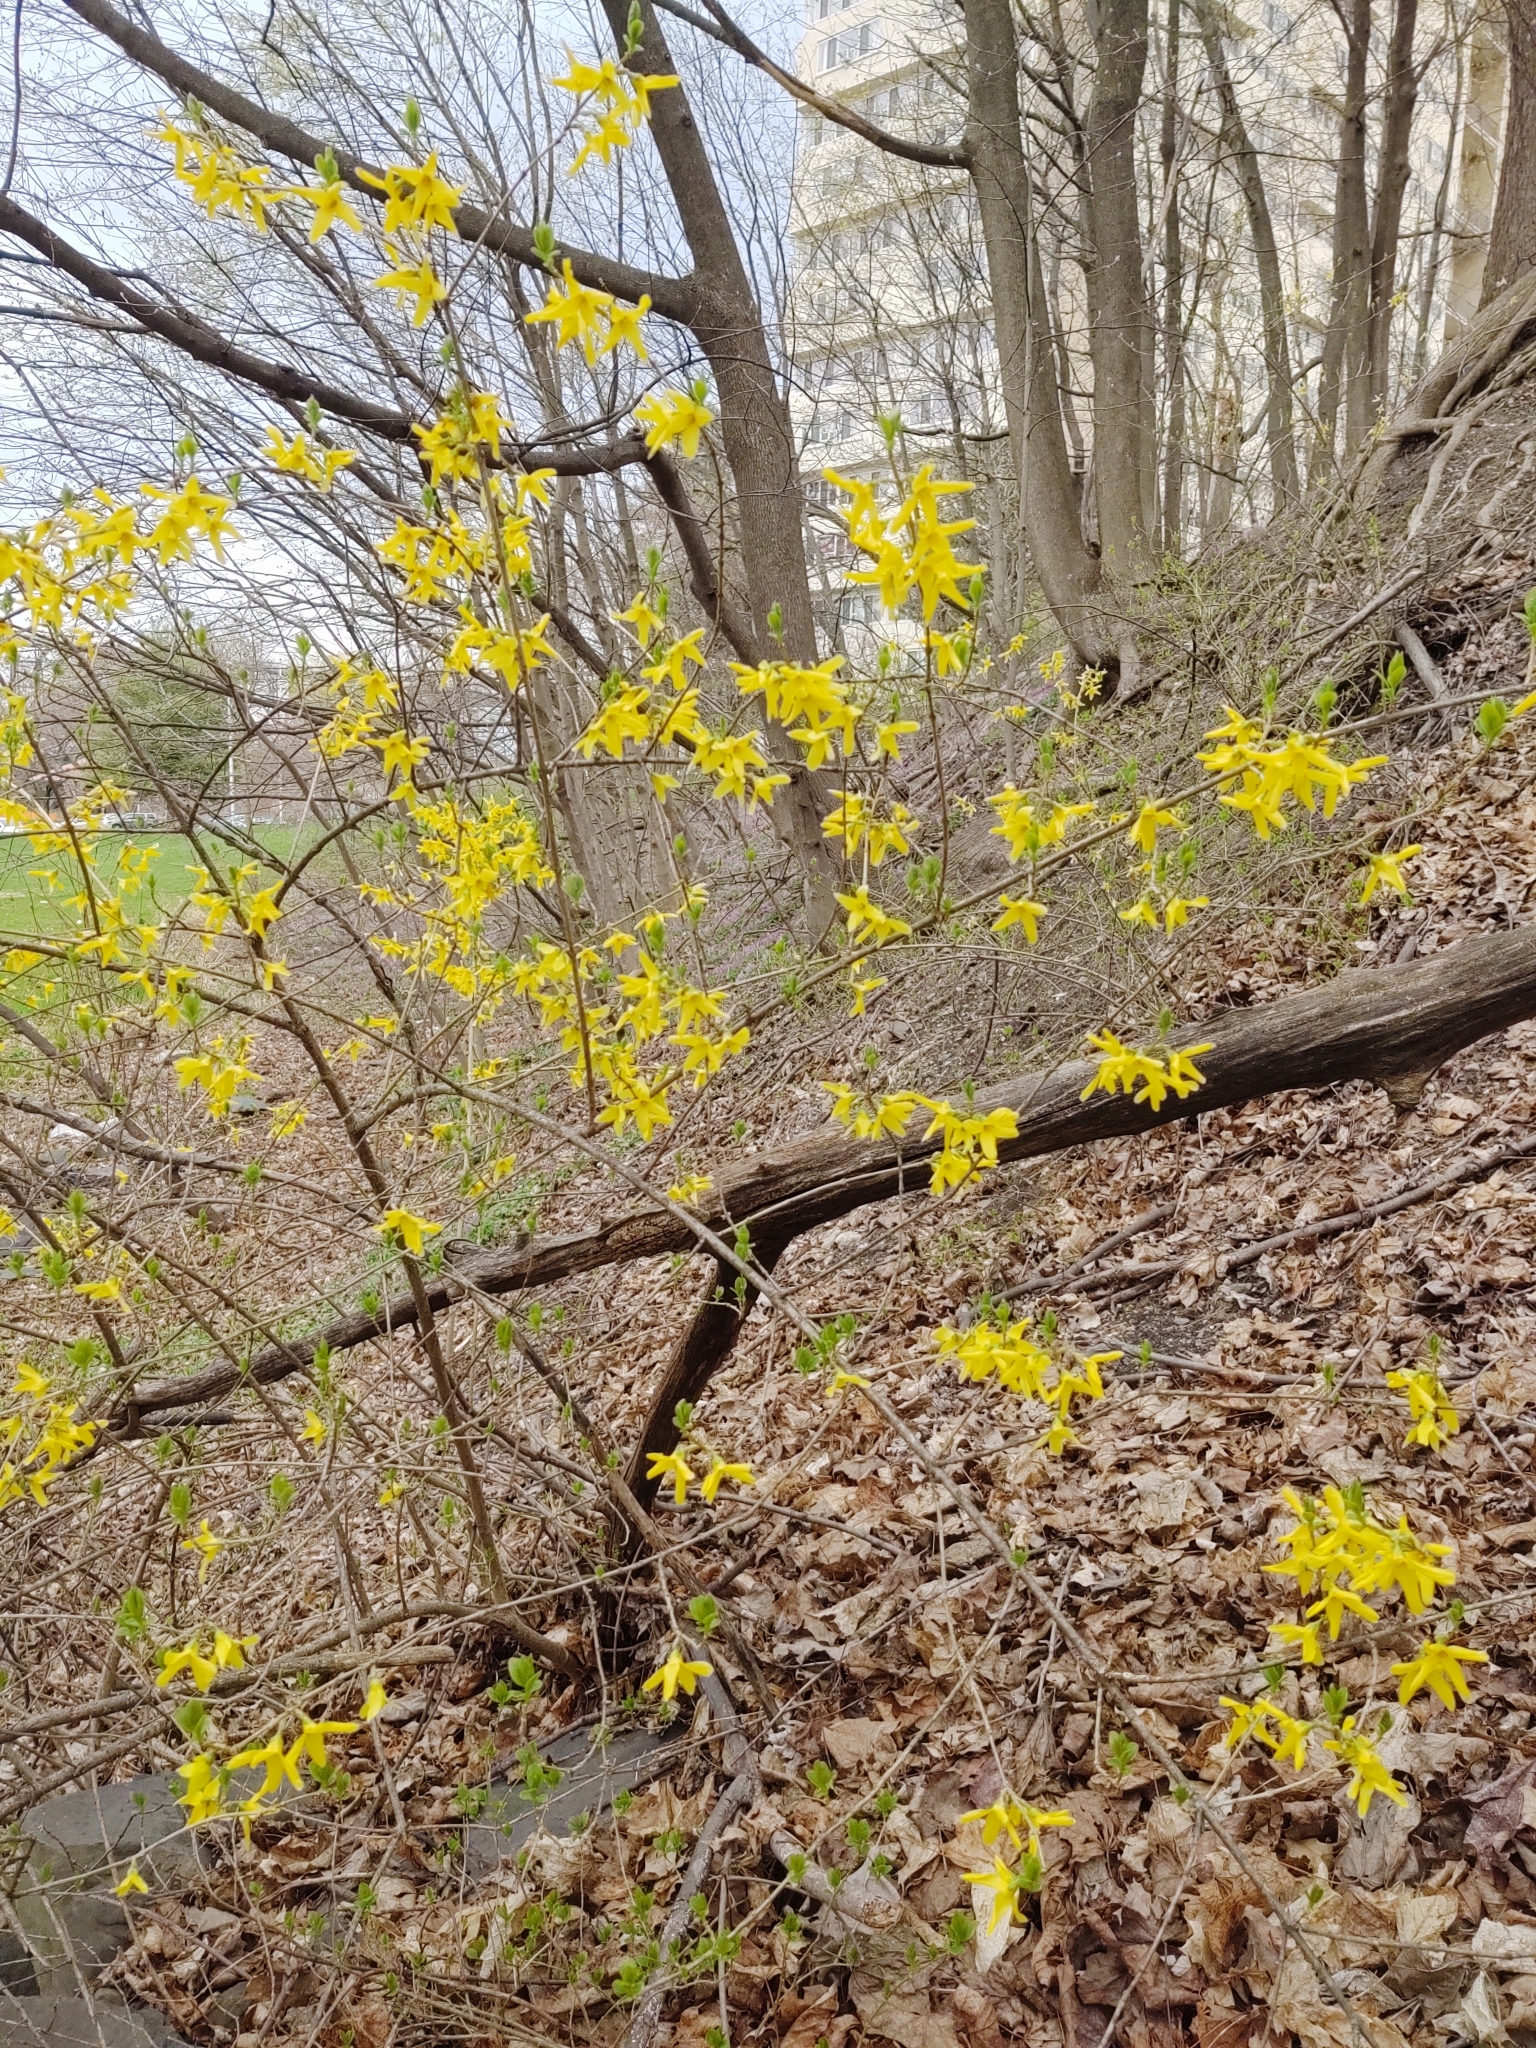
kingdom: Plantae
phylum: Tracheophyta
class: Magnoliopsida
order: Lamiales
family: Oleaceae
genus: Forsythia
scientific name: Forsythia intermedia
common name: Forsythia
